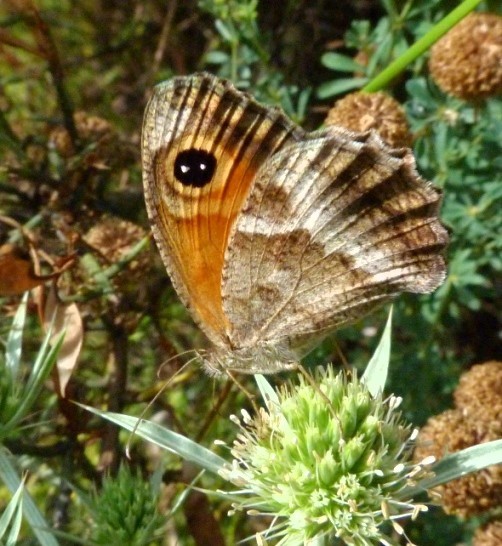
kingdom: Animalia
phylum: Arthropoda
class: Insecta
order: Lepidoptera
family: Nymphalidae
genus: Pyronia
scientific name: Pyronia cecilia
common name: Southern gatekeeper
